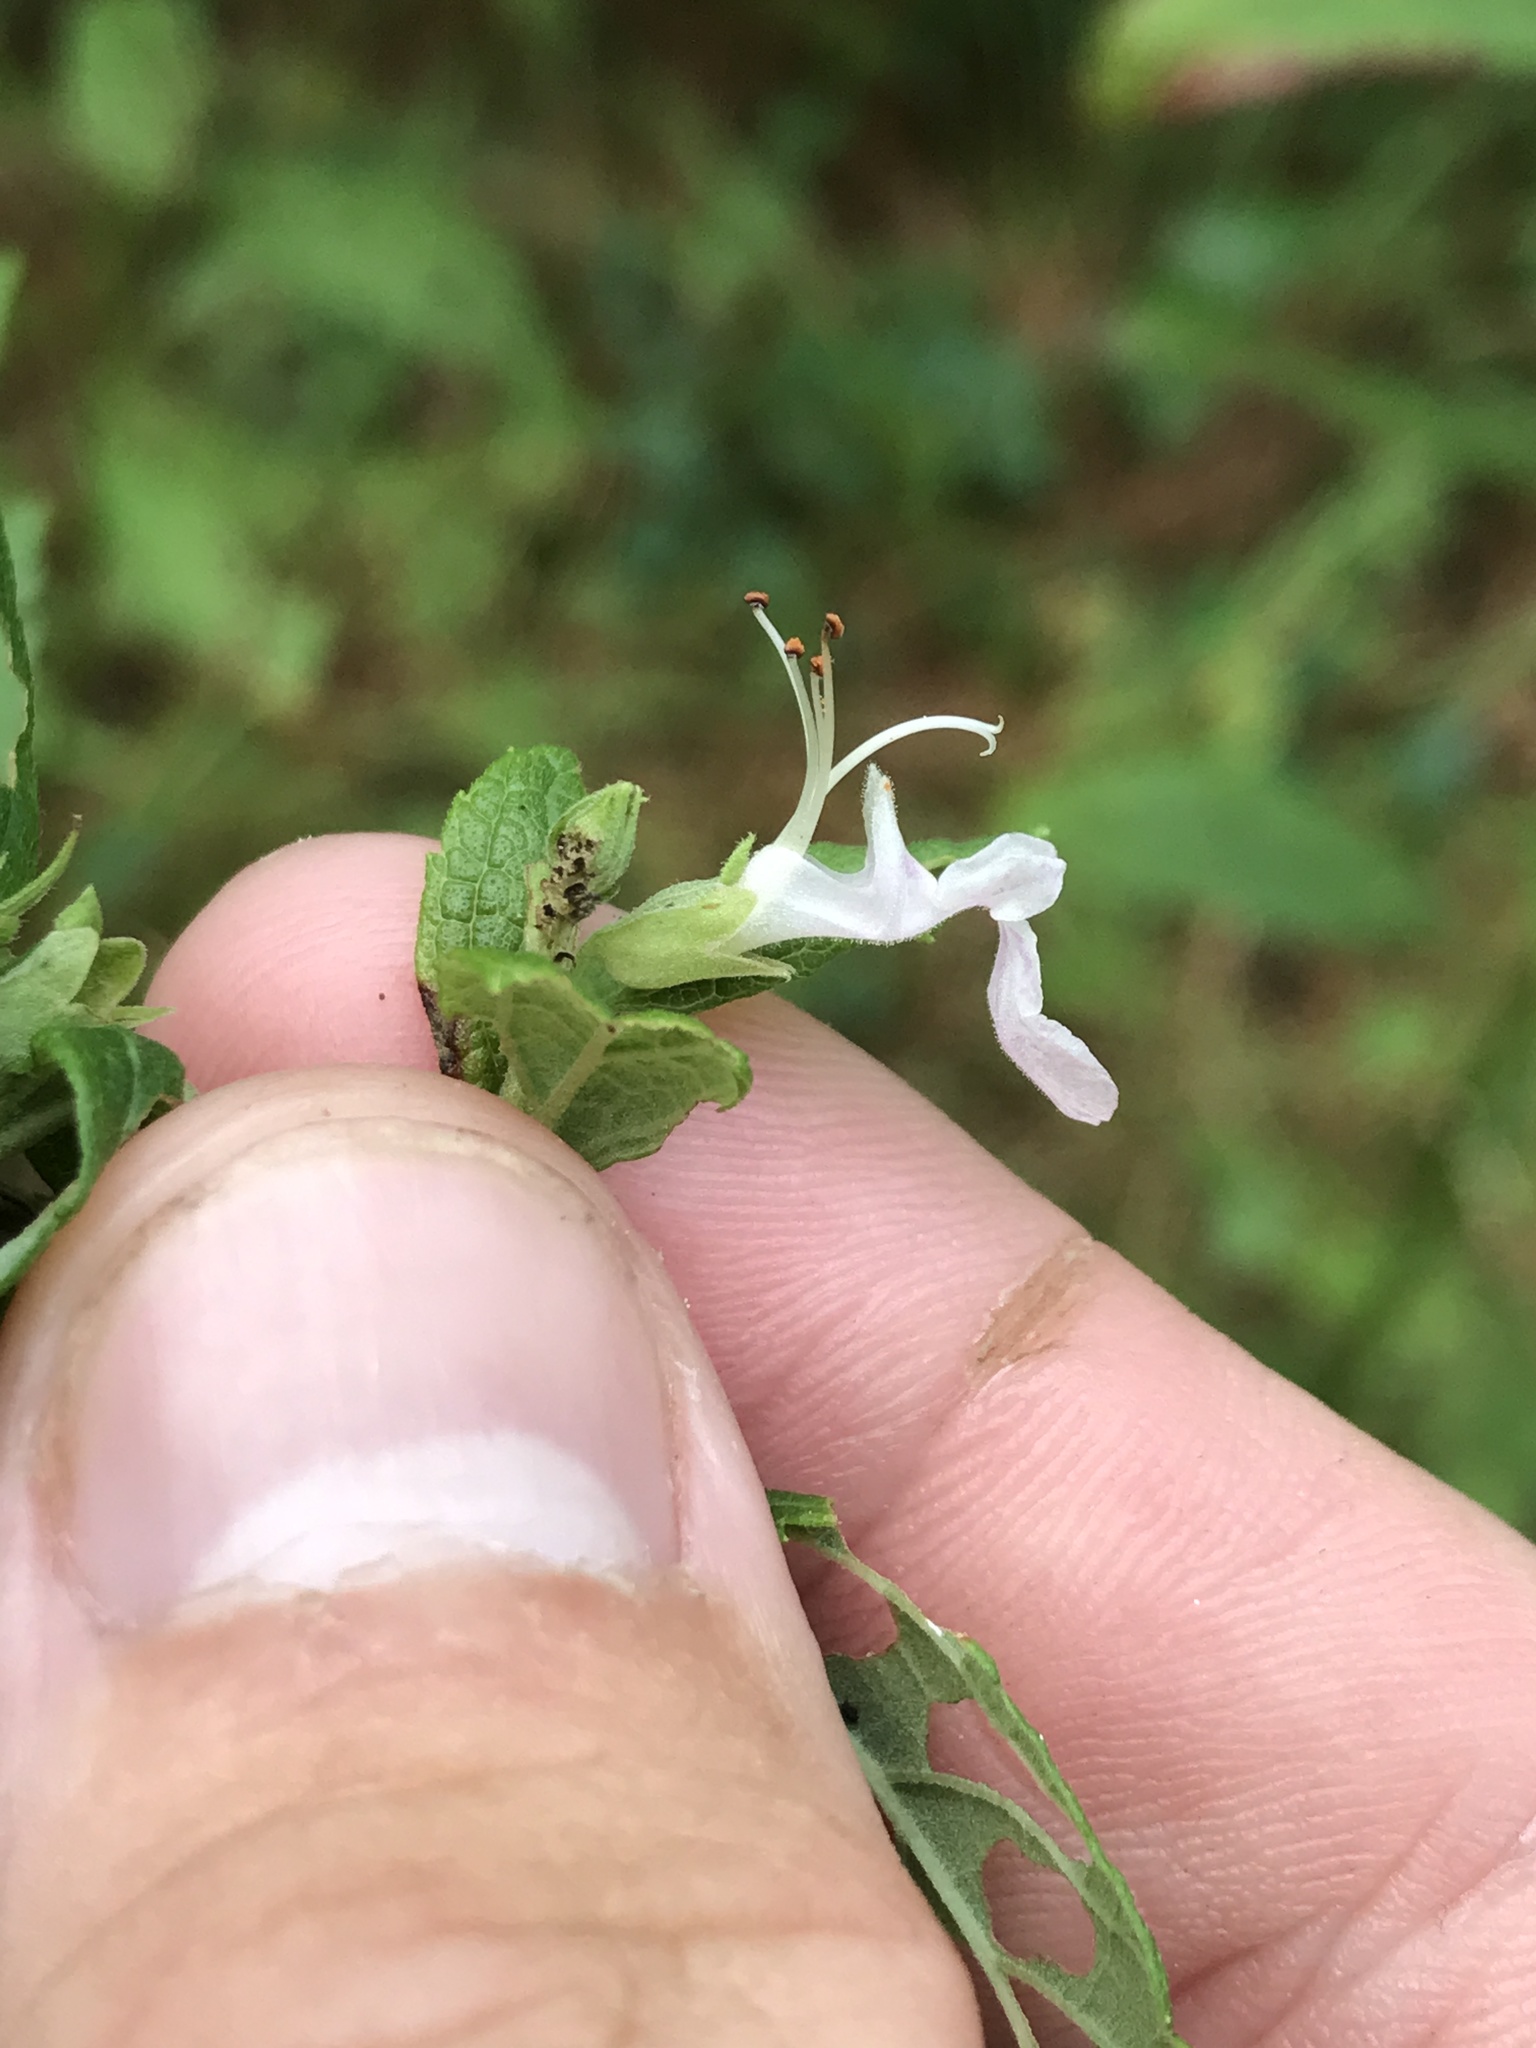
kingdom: Plantae
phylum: Tracheophyta
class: Magnoliopsida
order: Lamiales
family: Lamiaceae
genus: Teucrium
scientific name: Teucrium canadense
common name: American germander
